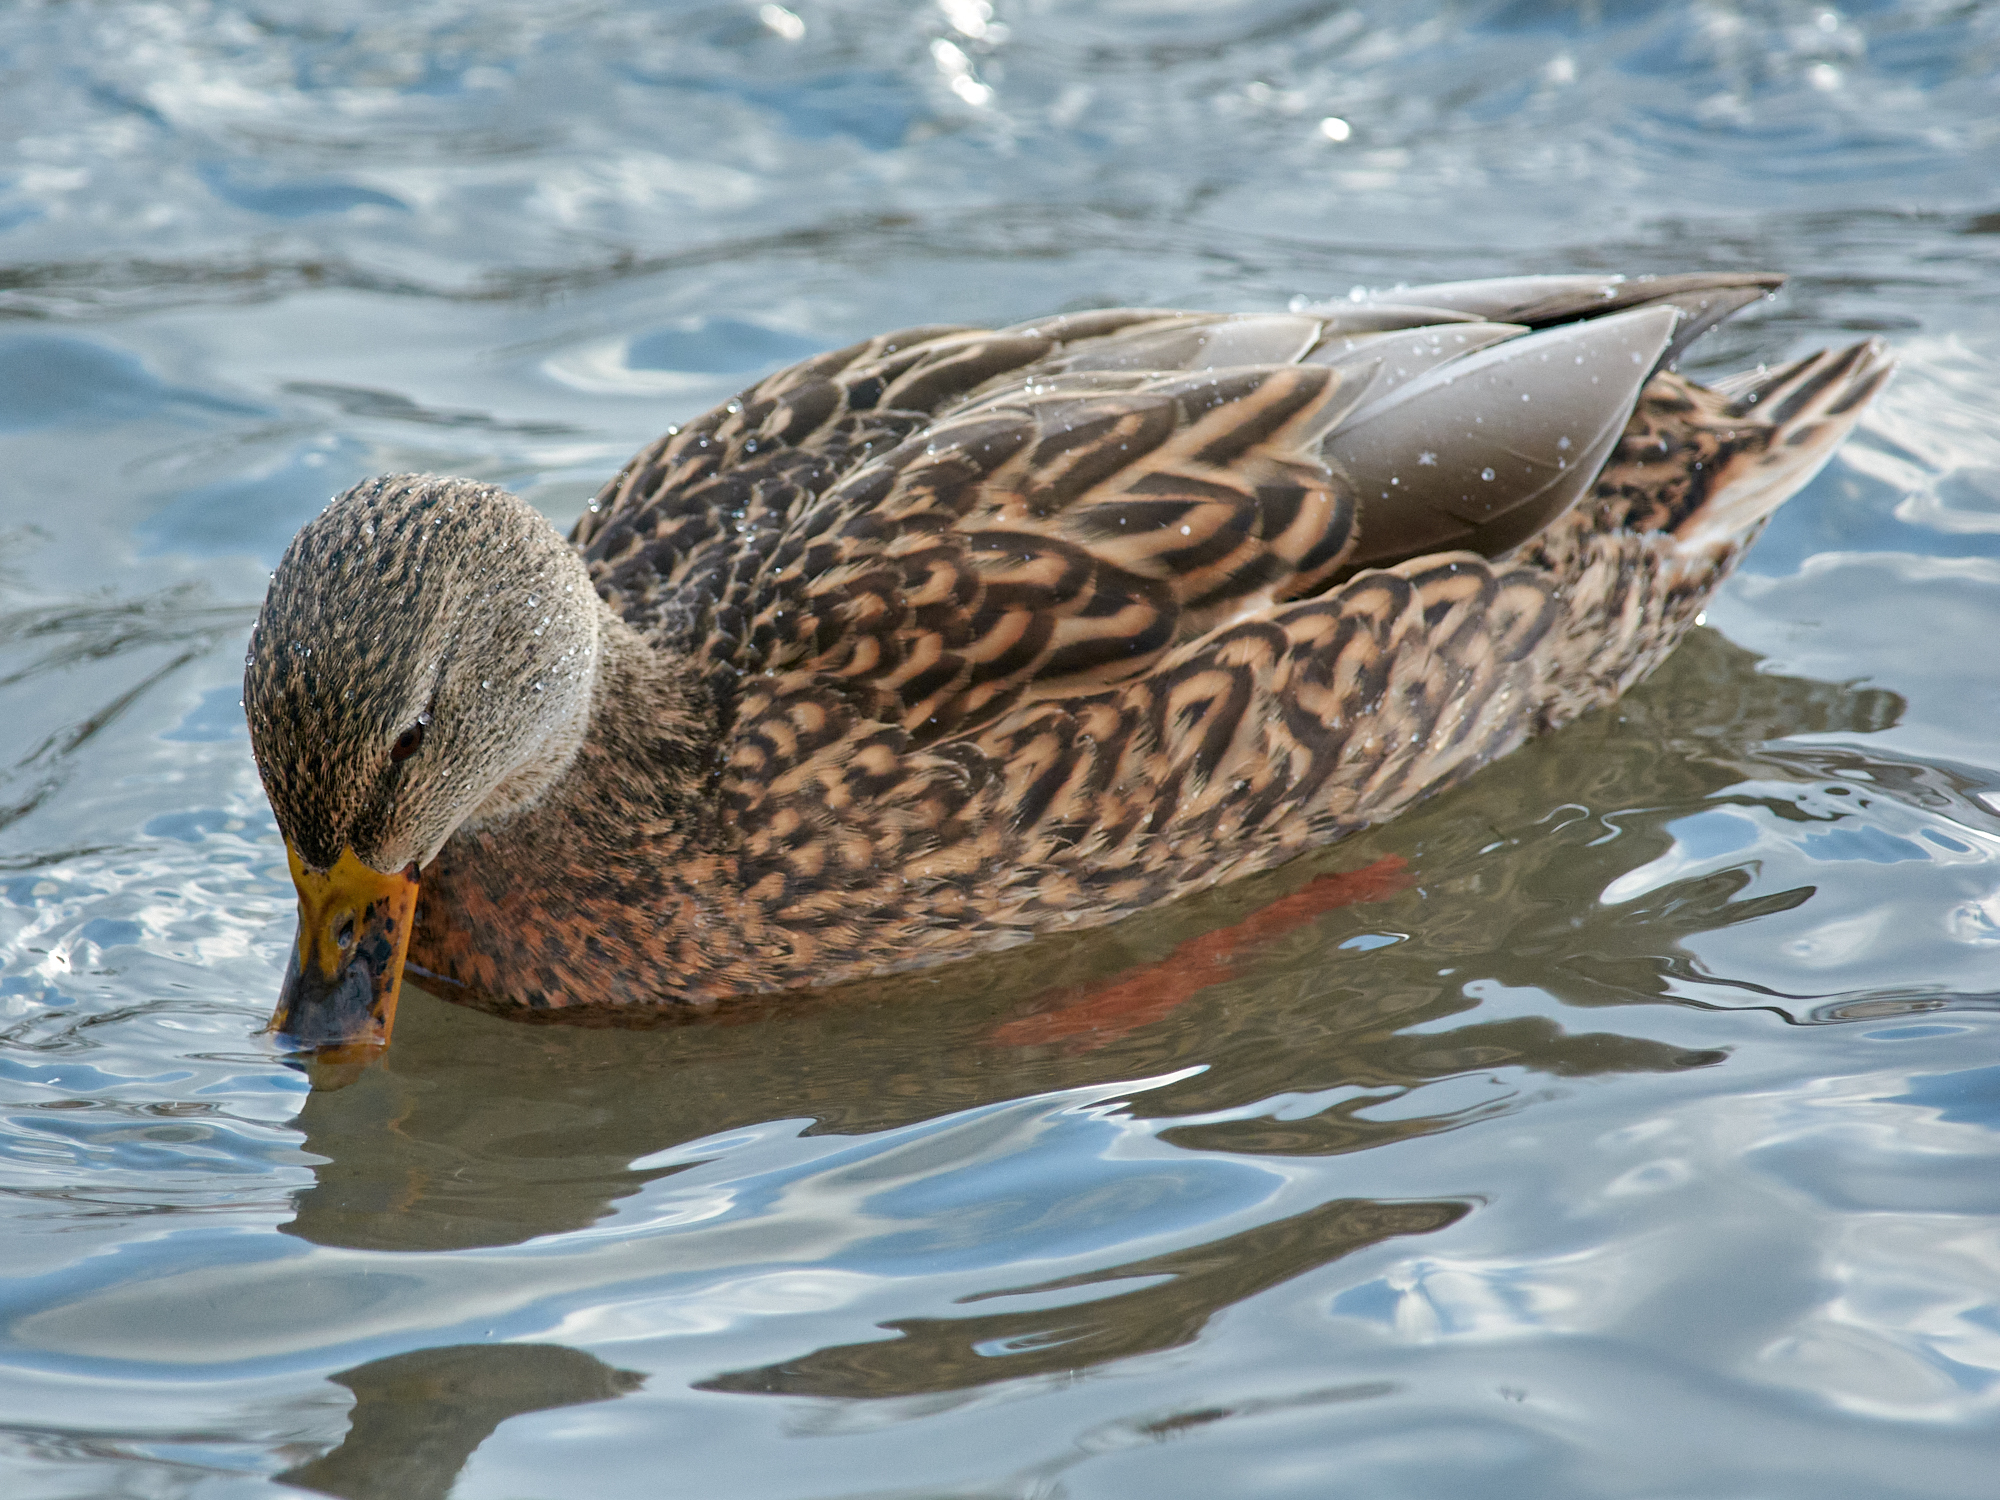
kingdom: Animalia
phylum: Chordata
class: Aves
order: Anseriformes
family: Anatidae
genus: Anas
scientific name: Anas platyrhynchos
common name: Mallard
